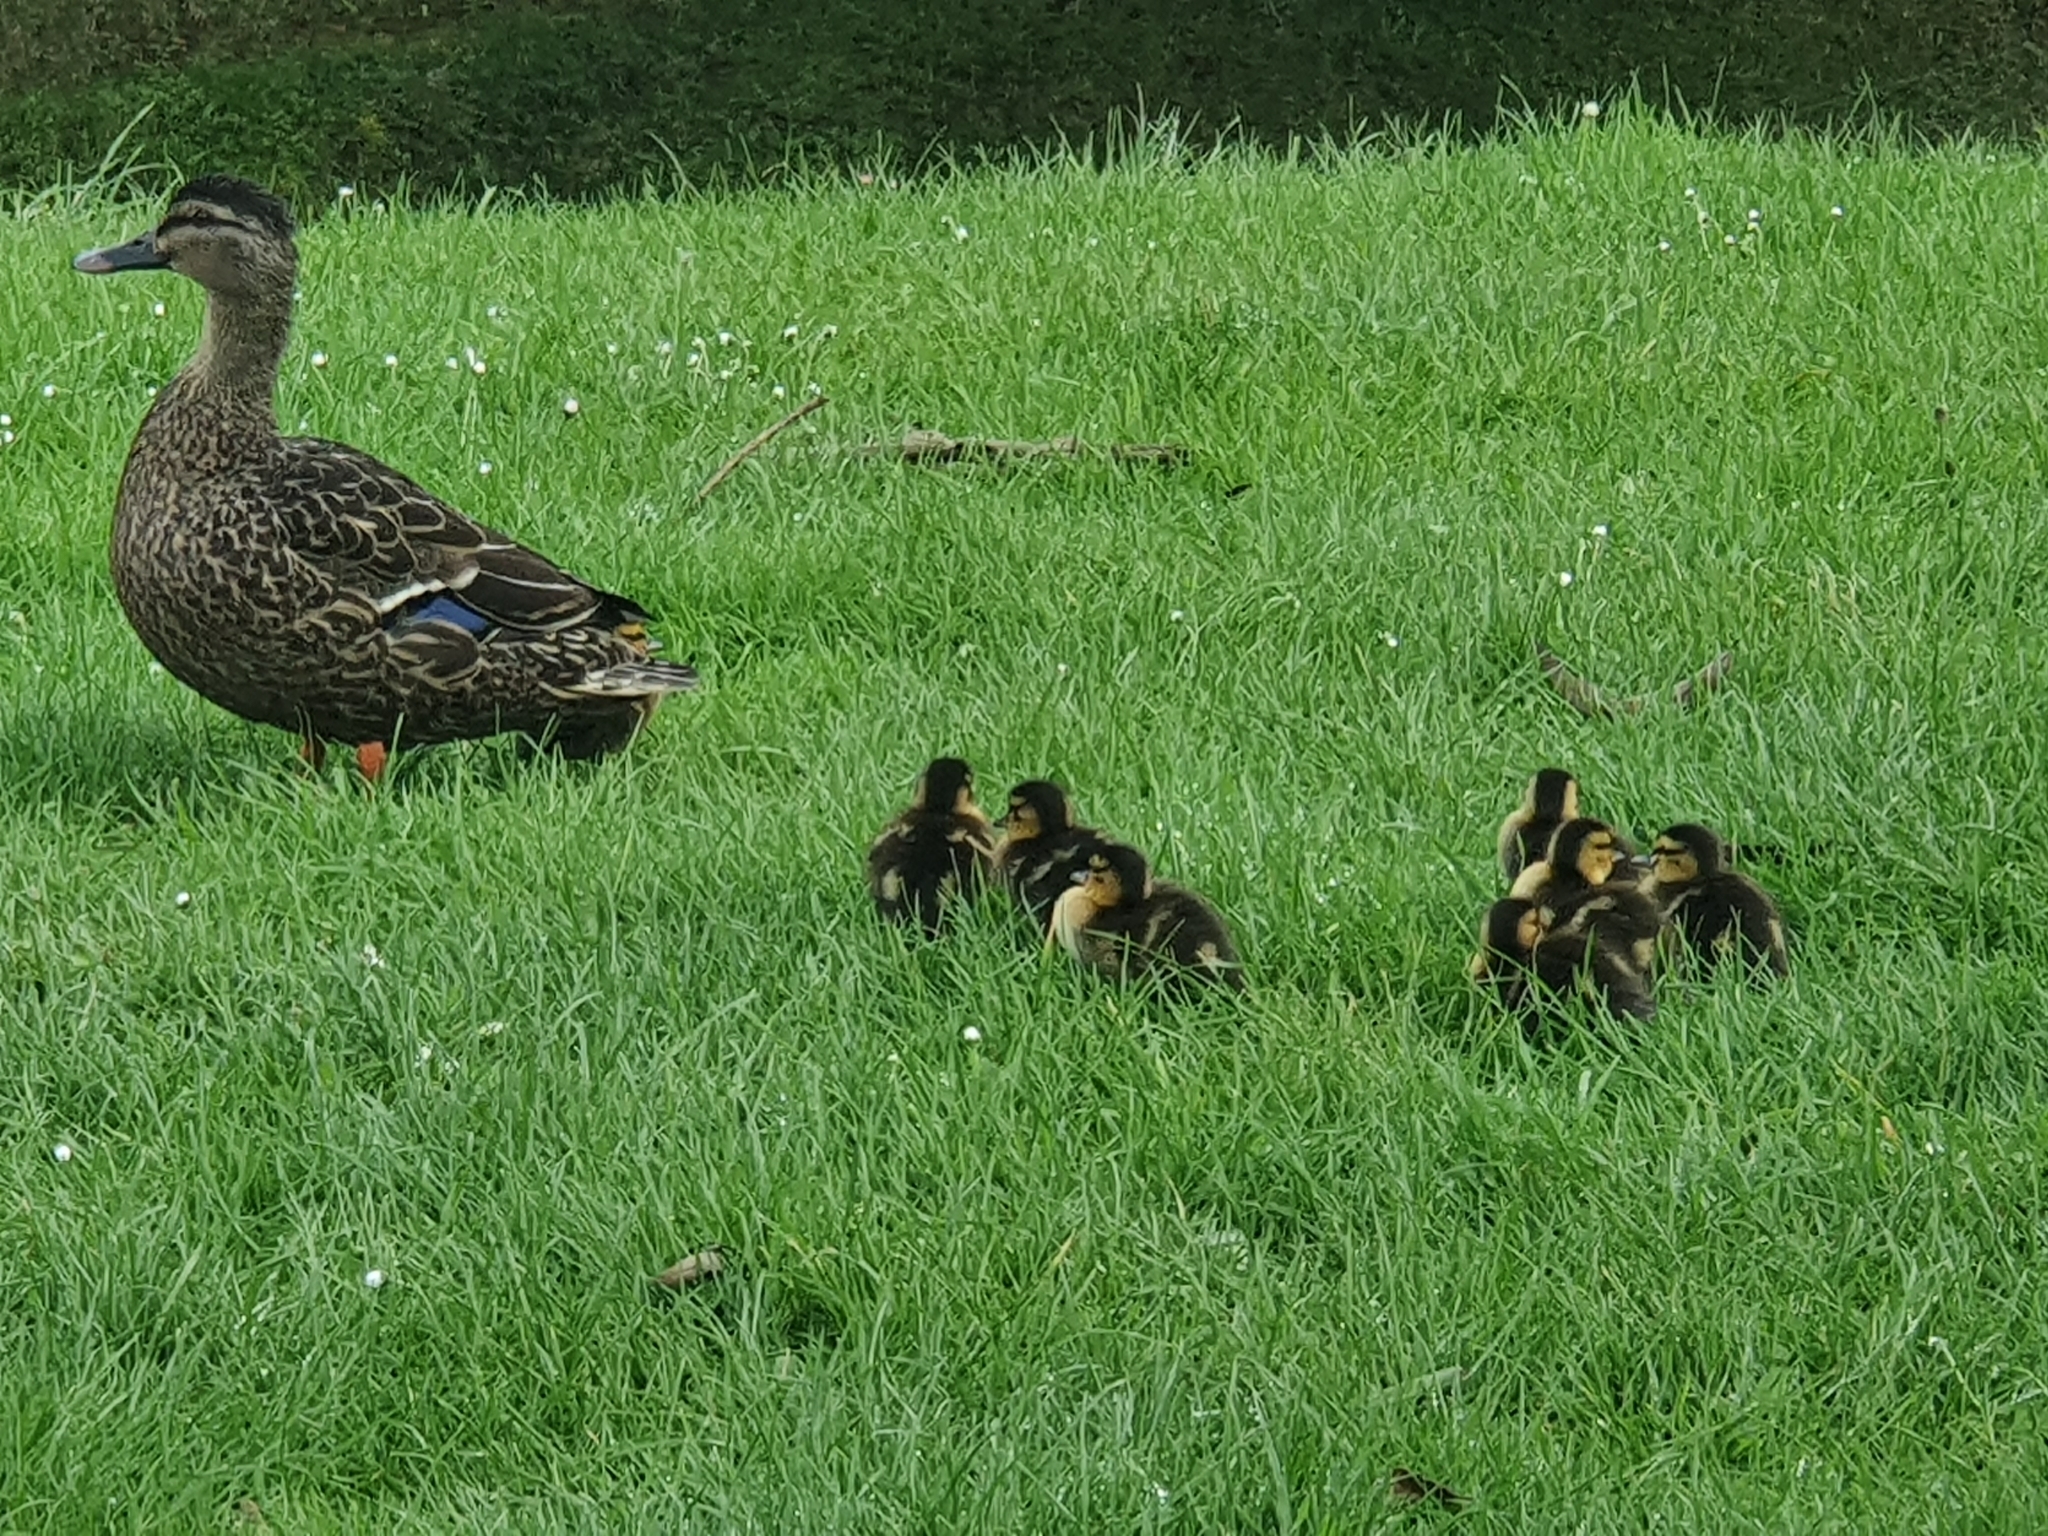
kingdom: Animalia
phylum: Chordata
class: Aves
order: Anseriformes
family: Anatidae
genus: Anas
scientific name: Anas
